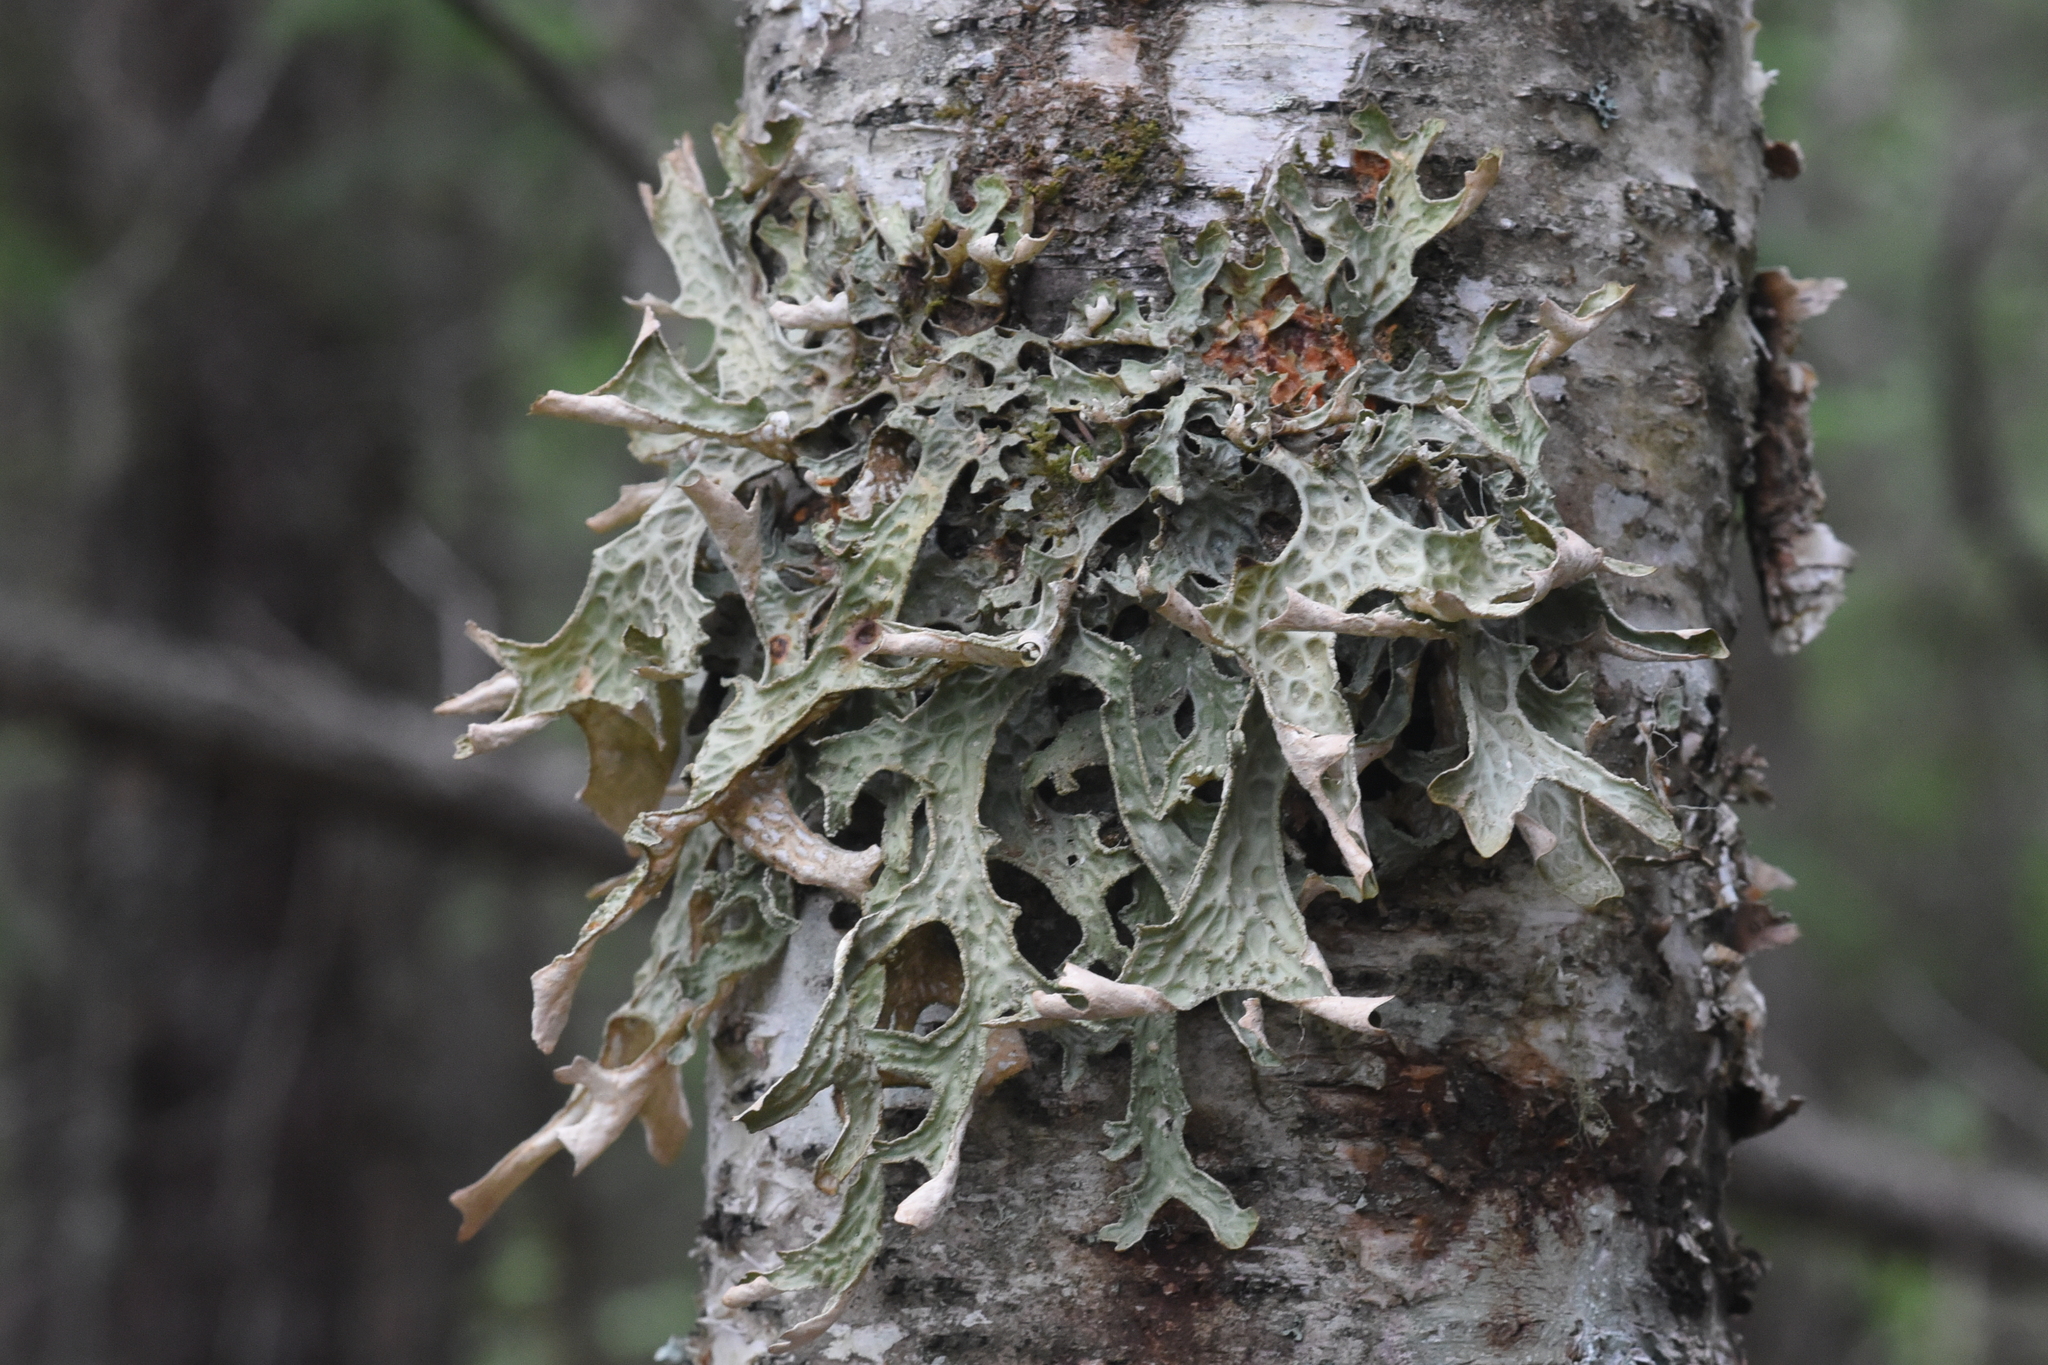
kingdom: Fungi
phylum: Ascomycota
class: Lecanoromycetes
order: Peltigerales
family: Lobariaceae
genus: Lobaria
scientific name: Lobaria pulmonaria
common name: Lungwort
